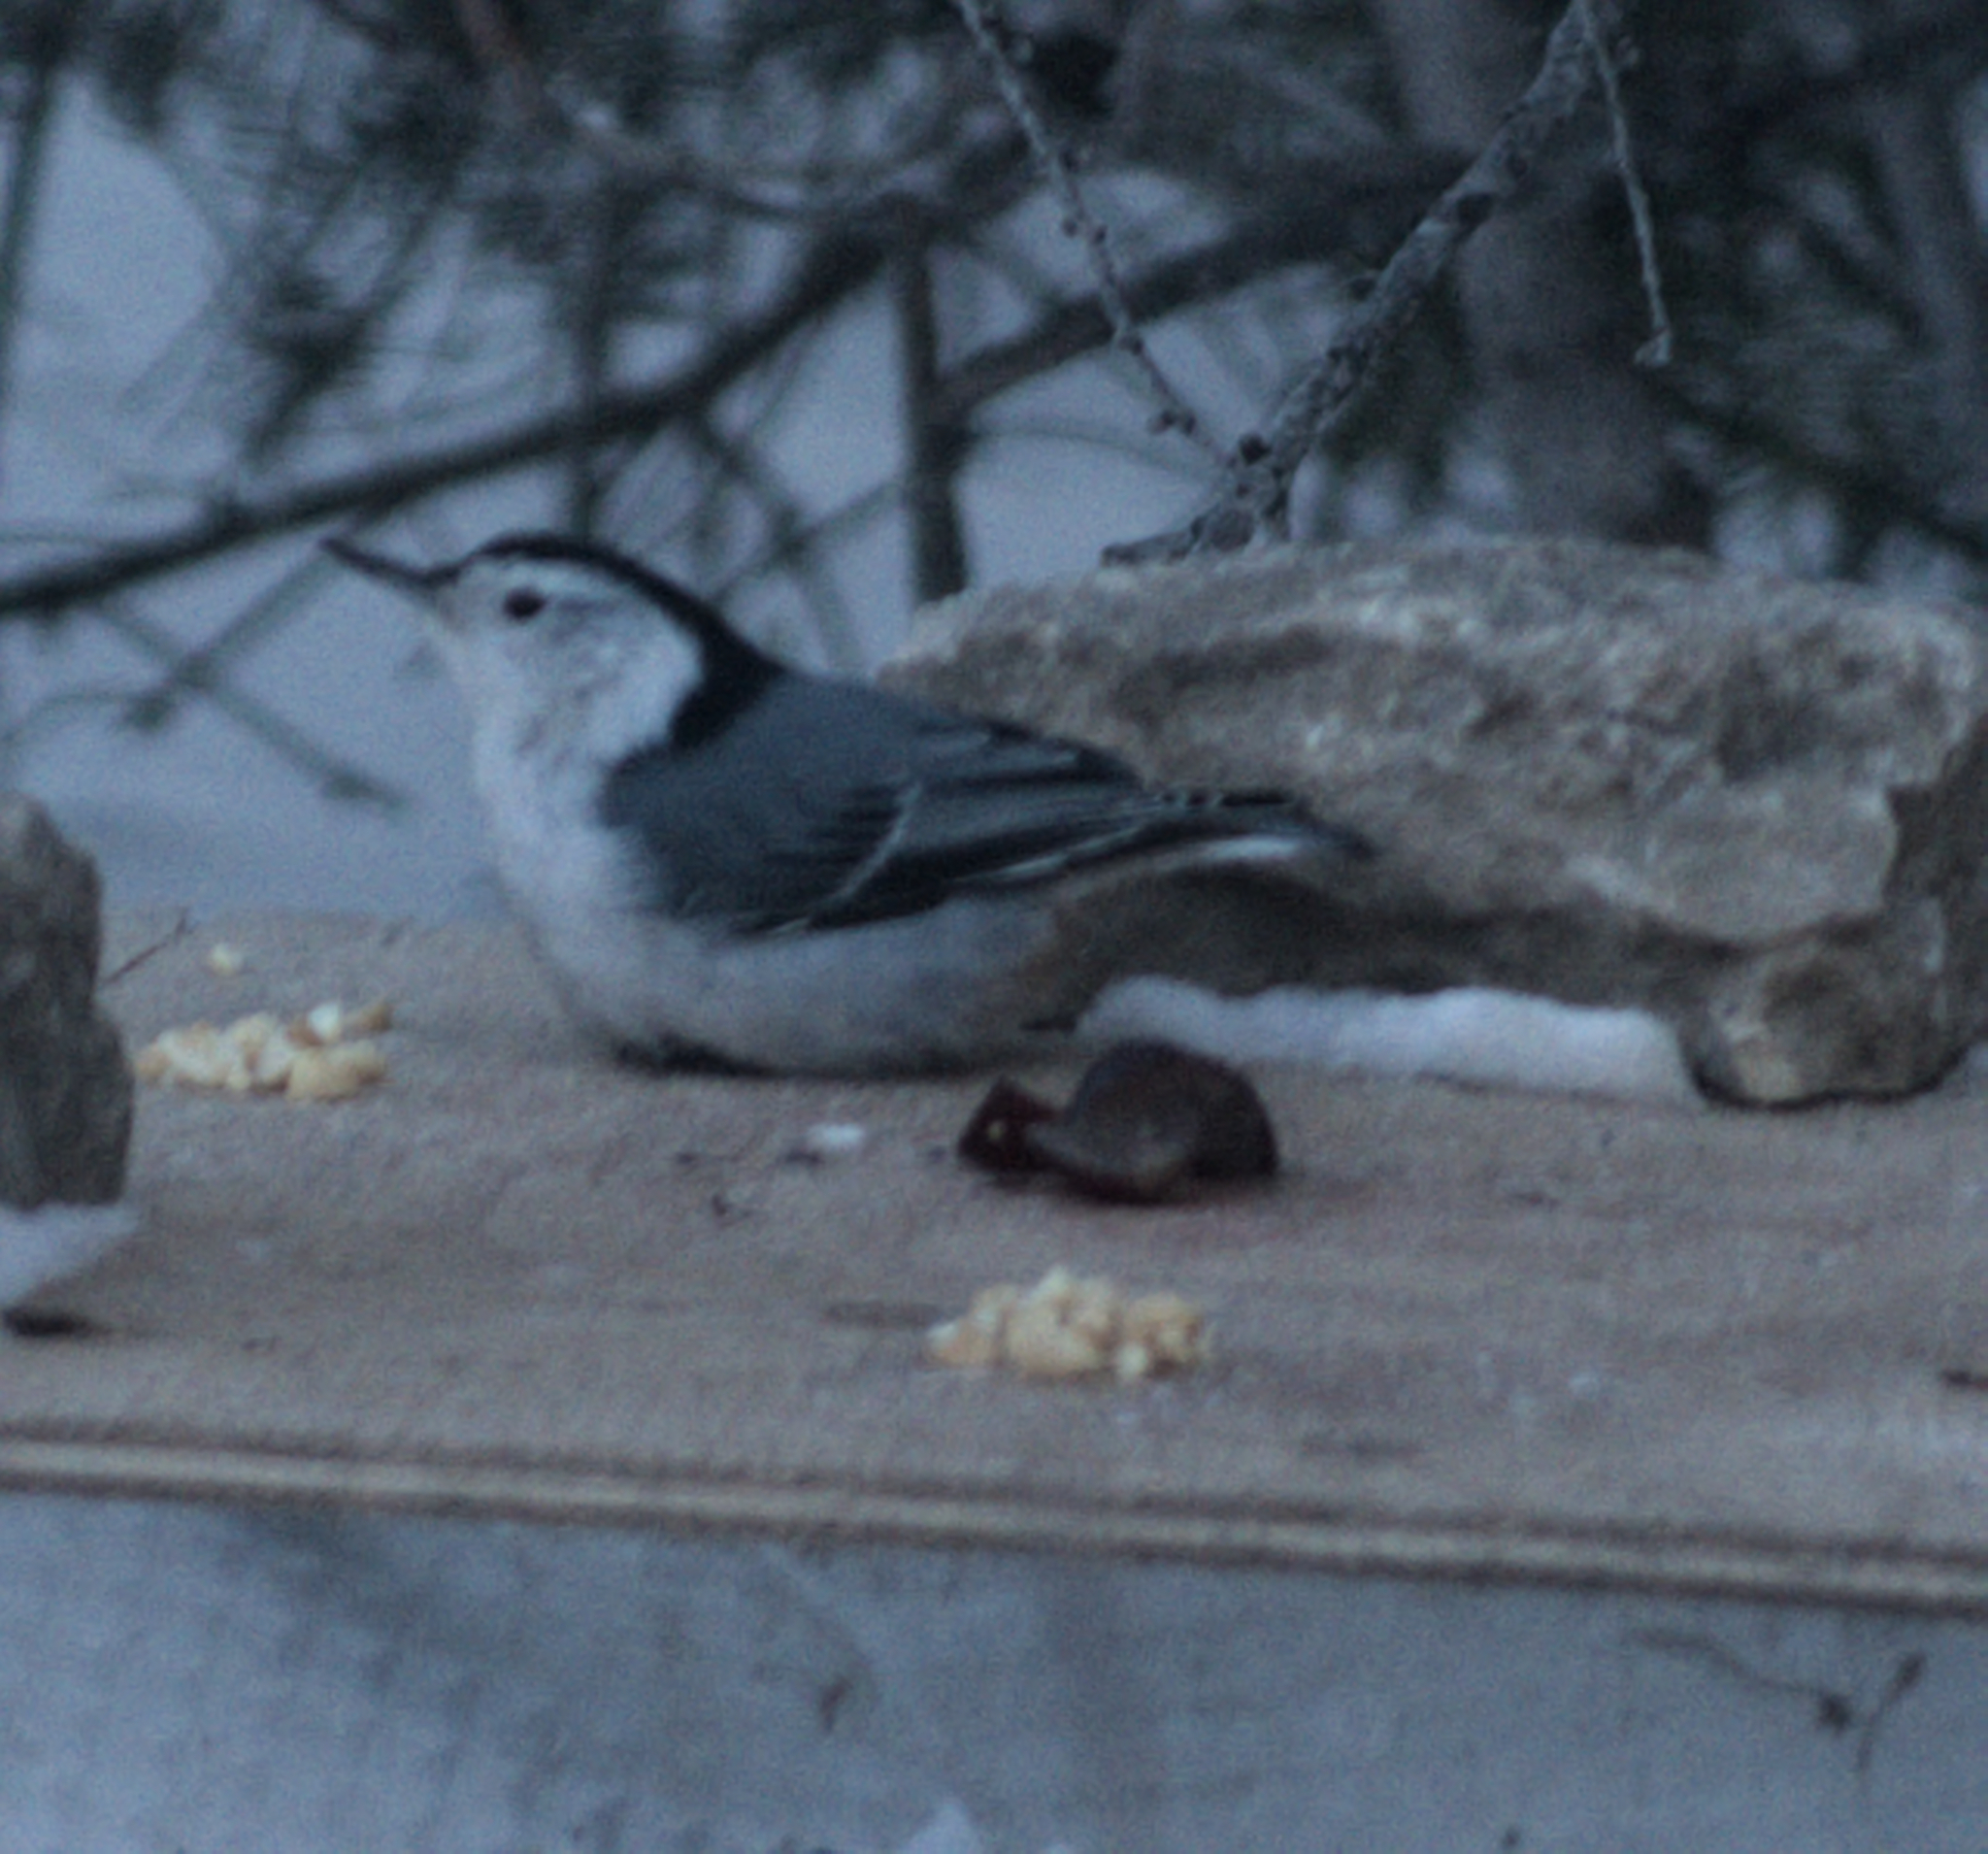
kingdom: Animalia
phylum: Chordata
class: Aves
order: Passeriformes
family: Sittidae
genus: Sitta
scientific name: Sitta carolinensis
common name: White-breasted nuthatch
